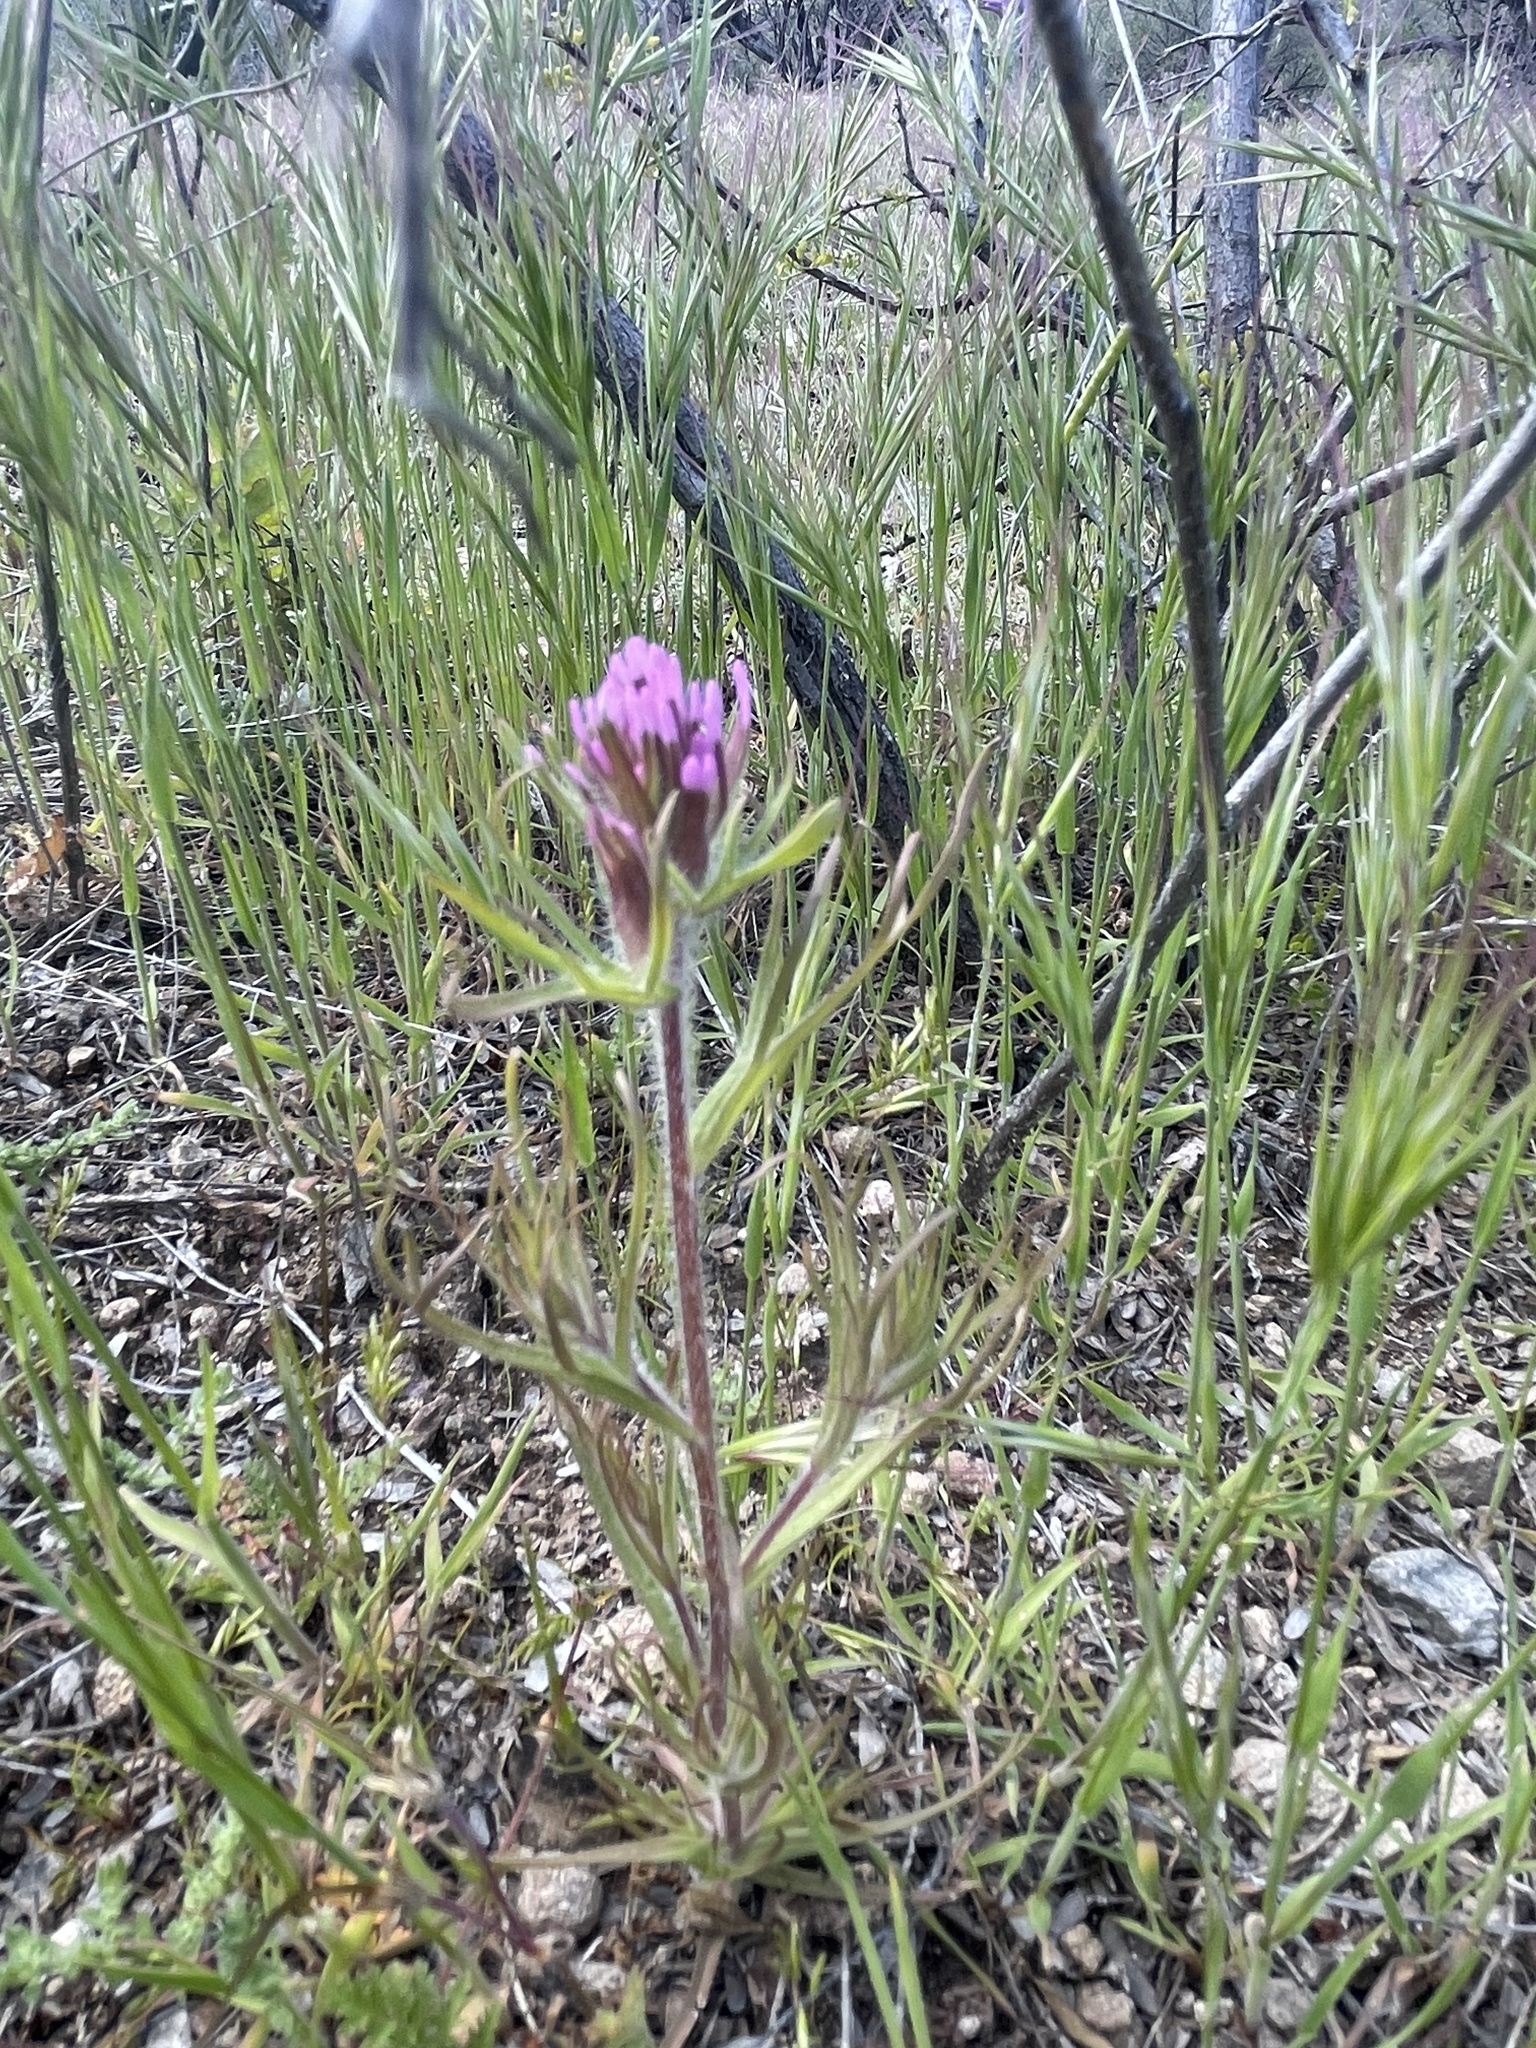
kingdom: Plantae
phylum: Tracheophyta
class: Magnoliopsida
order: Lamiales
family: Orobanchaceae
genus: Castilleja
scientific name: Castilleja exserta
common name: Purple owl-clover
